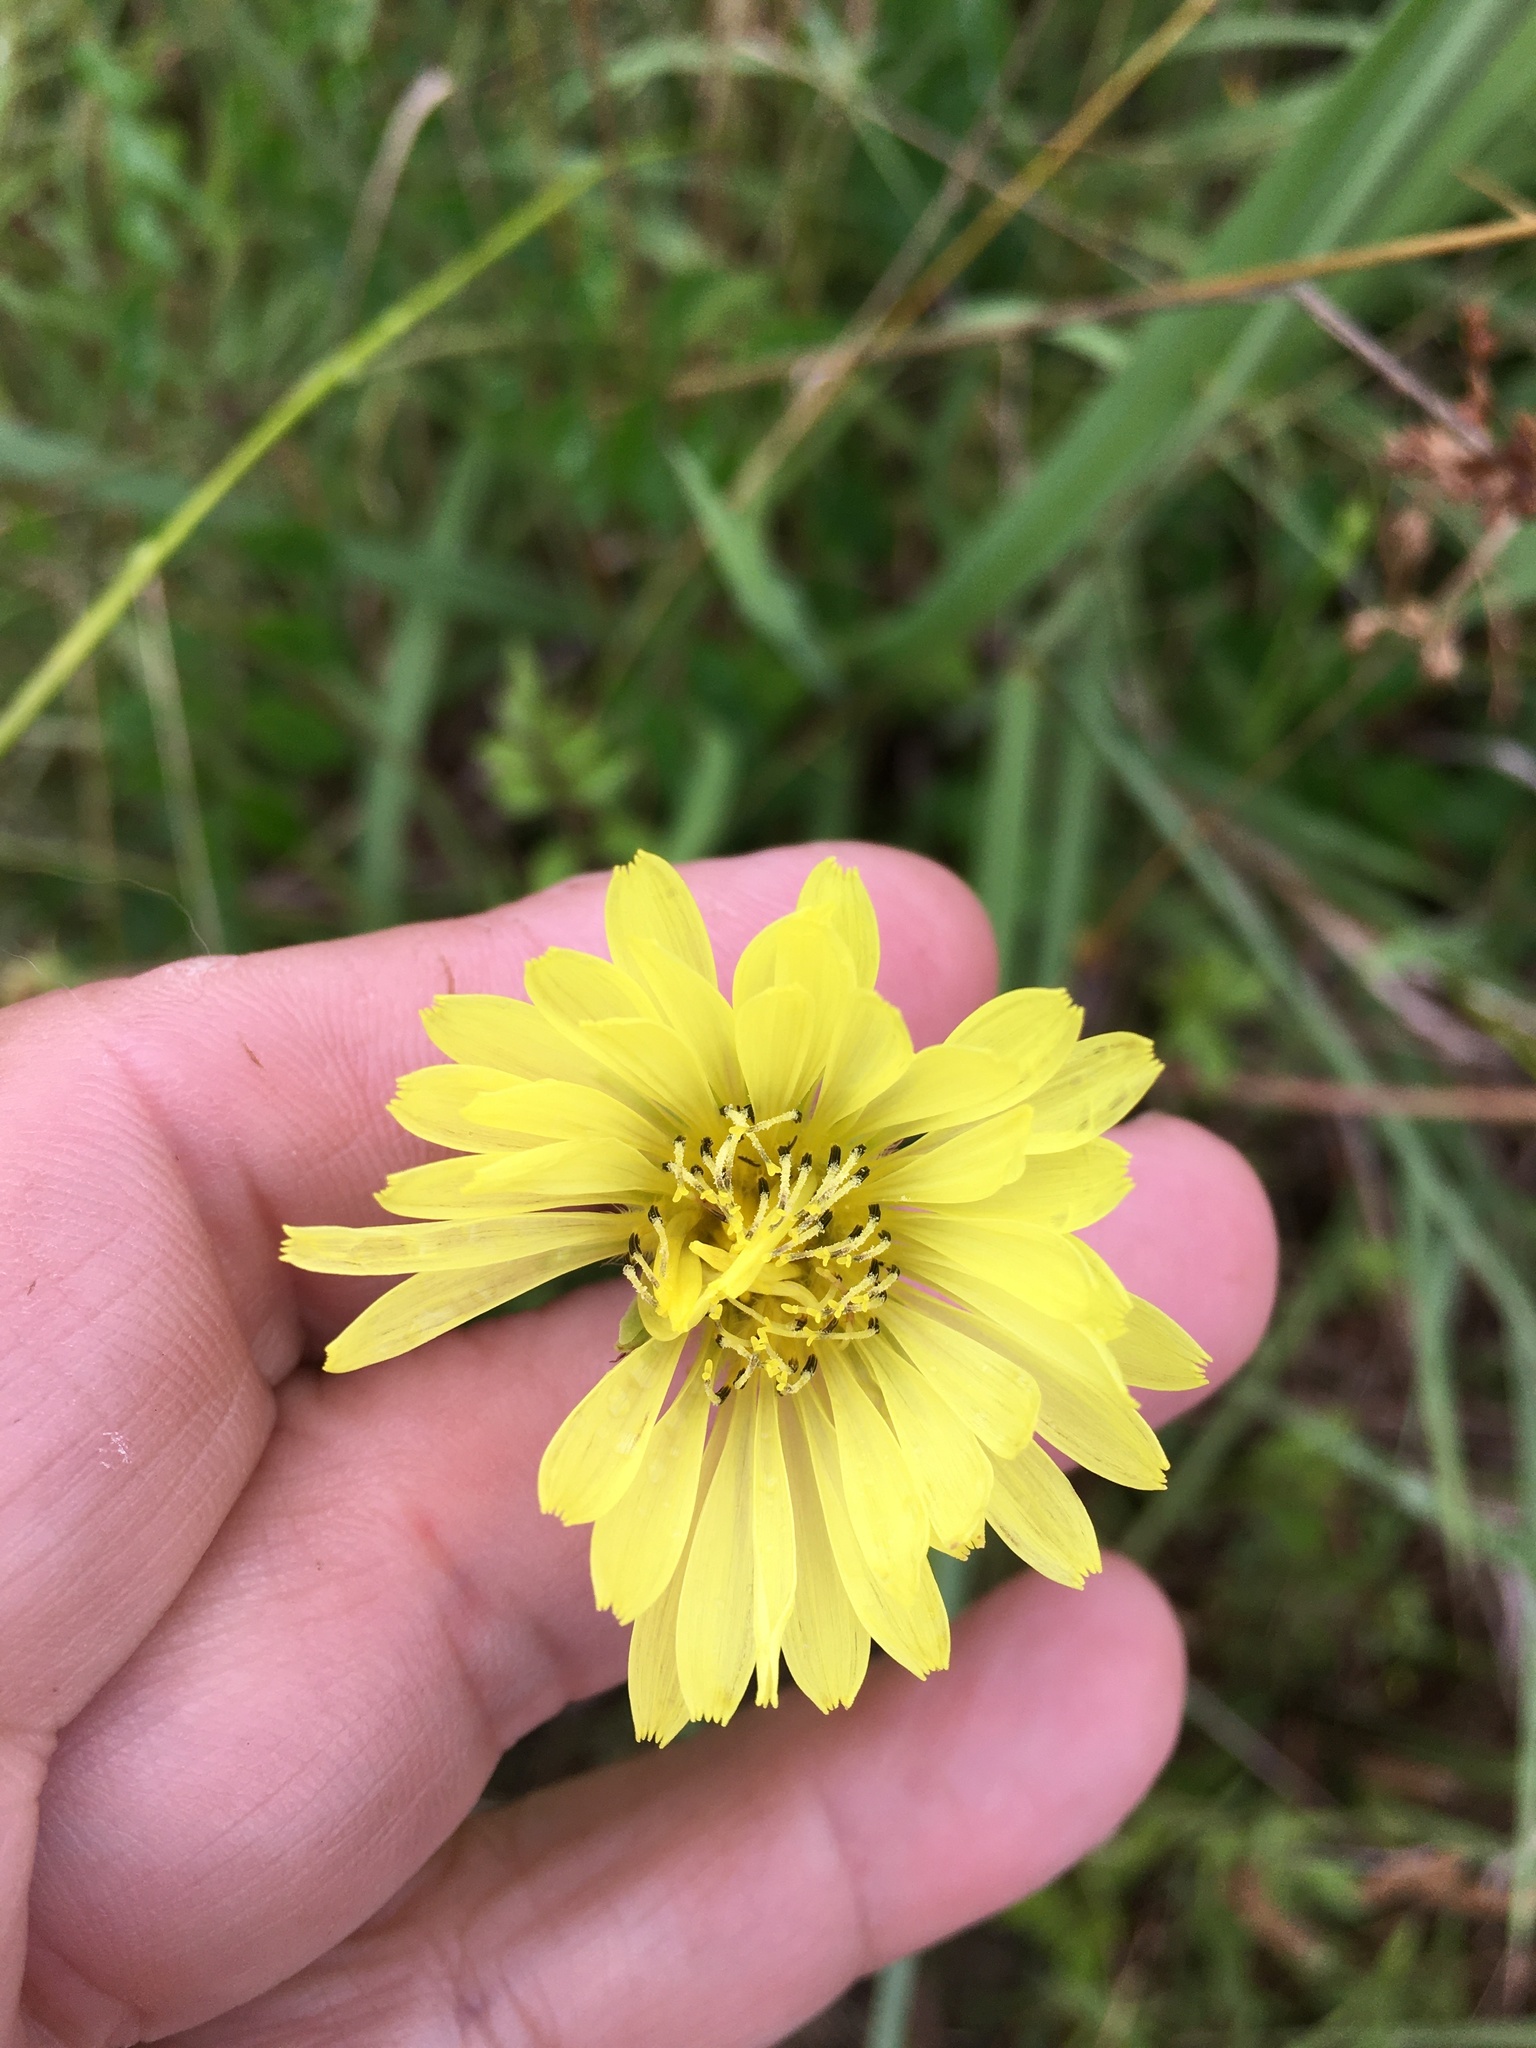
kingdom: Plantae
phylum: Tracheophyta
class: Magnoliopsida
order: Asterales
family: Asteraceae
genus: Pyrrhopappus
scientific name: Pyrrhopappus carolinianus
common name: Carolina desert-chicory
